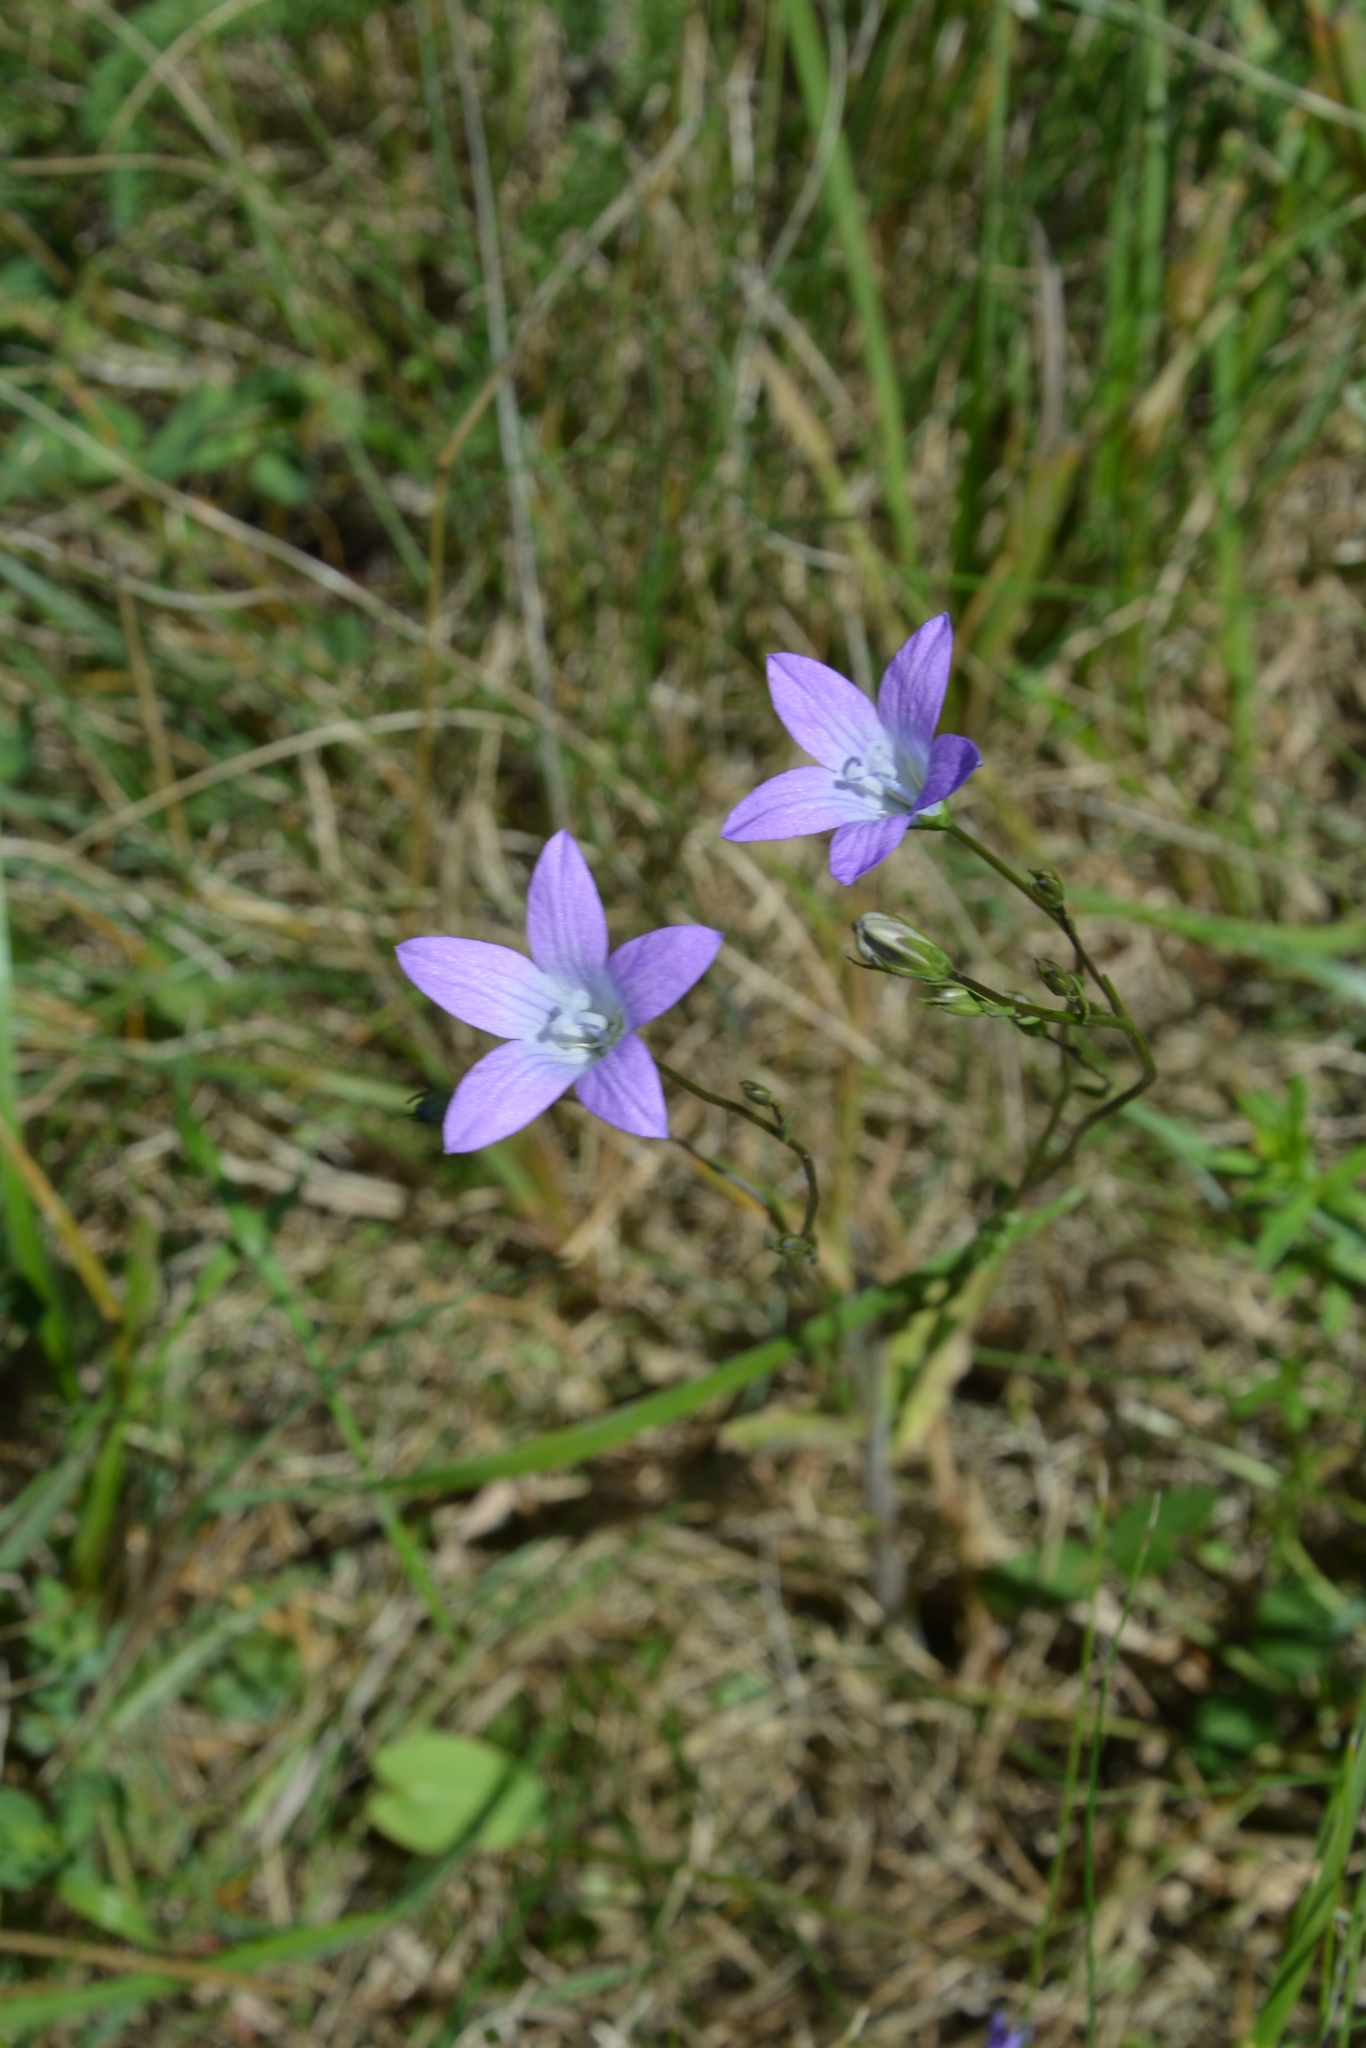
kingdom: Plantae
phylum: Tracheophyta
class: Magnoliopsida
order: Asterales
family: Campanulaceae
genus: Campanula
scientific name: Campanula patula
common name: Spreading bellflower
